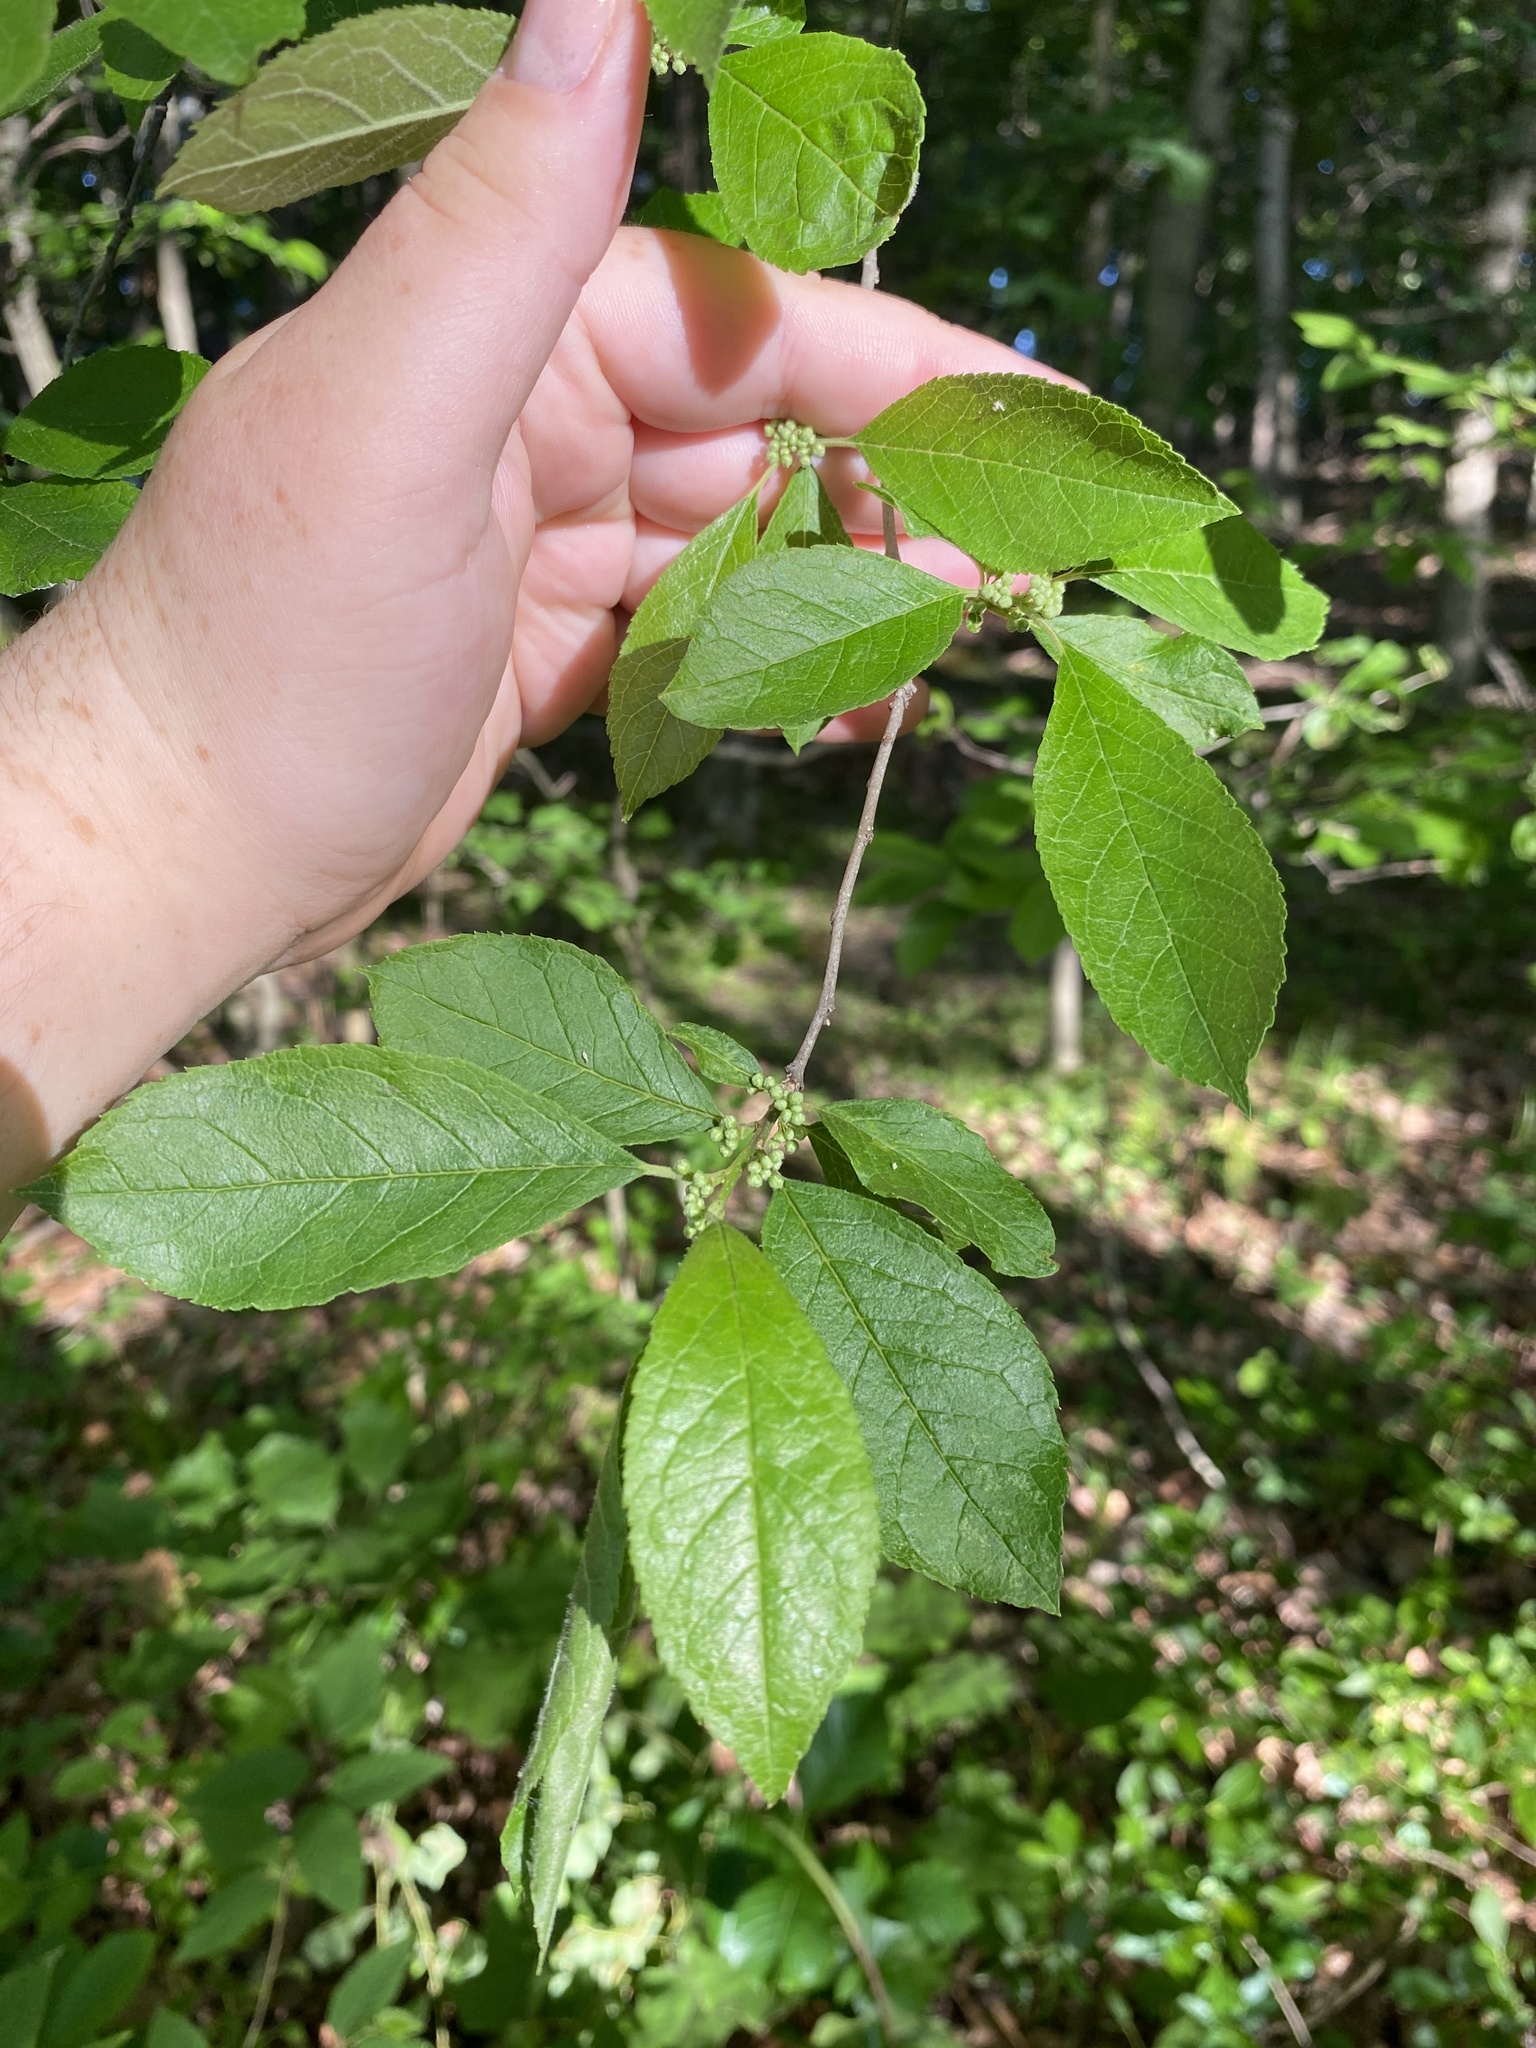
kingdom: Plantae
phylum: Tracheophyta
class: Magnoliopsida
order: Aquifoliales
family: Aquifoliaceae
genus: Ilex
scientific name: Ilex verticillata
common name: Virginia winterberry
